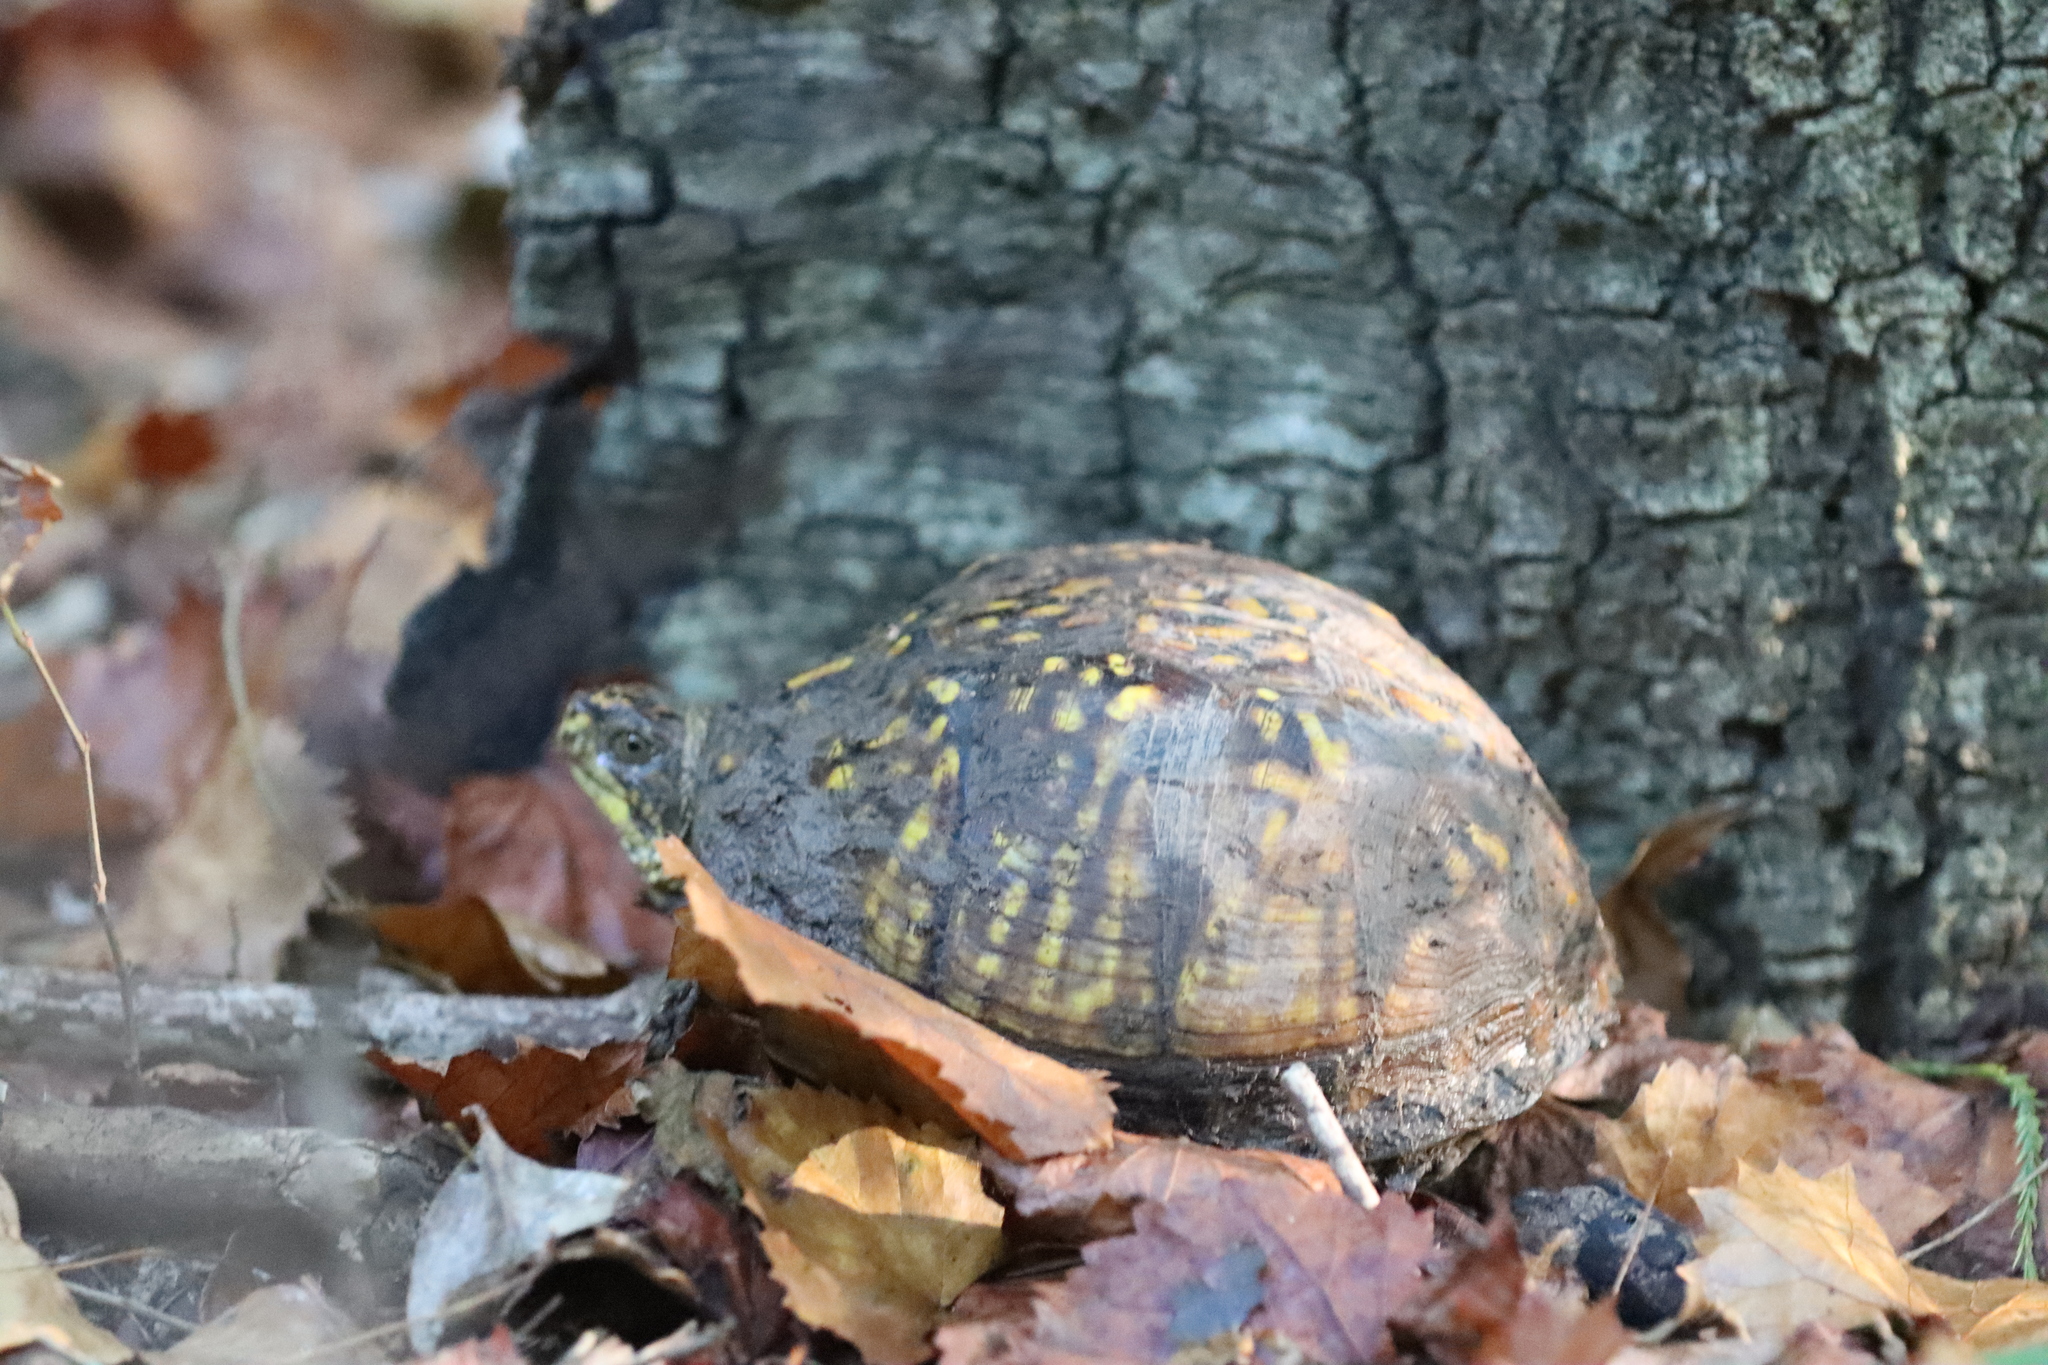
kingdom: Animalia
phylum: Chordata
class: Testudines
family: Emydidae
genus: Terrapene
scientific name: Terrapene carolina
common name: Common box turtle
